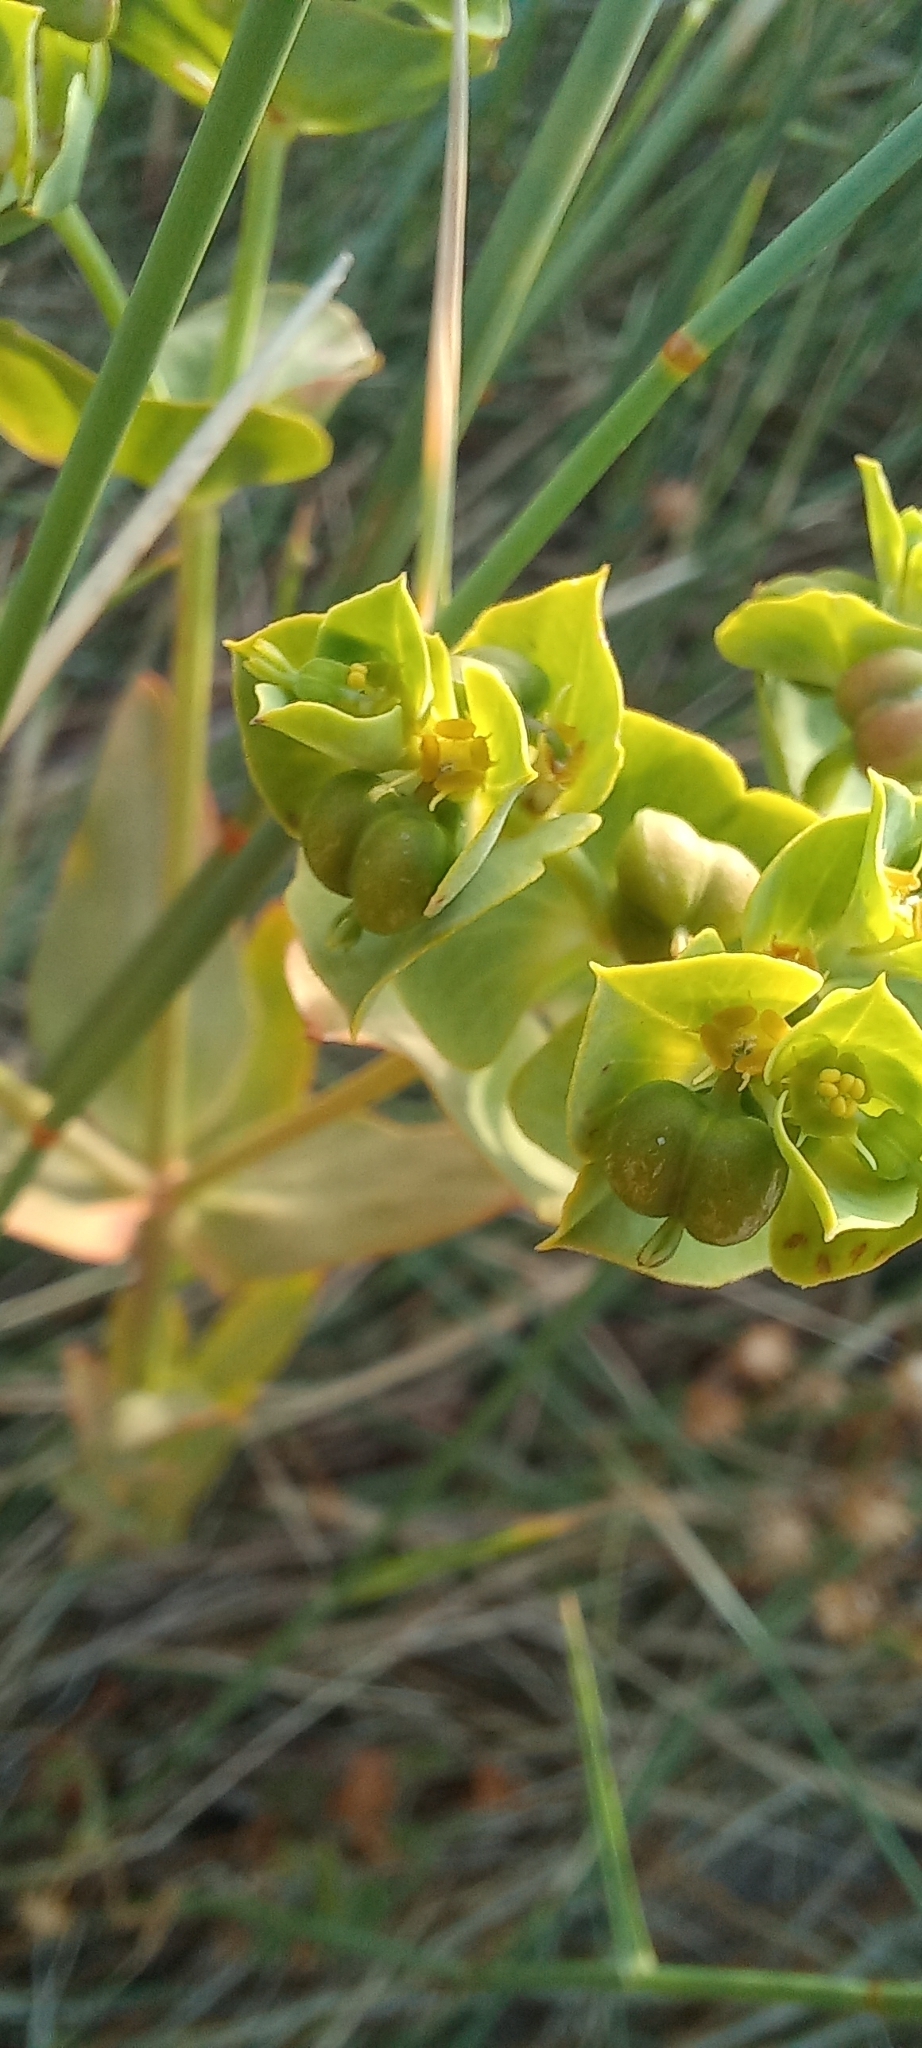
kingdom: Plantae
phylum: Tracheophyta
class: Magnoliopsida
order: Malpighiales
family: Euphorbiaceae
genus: Euphorbia
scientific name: Euphorbia terracina
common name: Geraldton carnation weed
